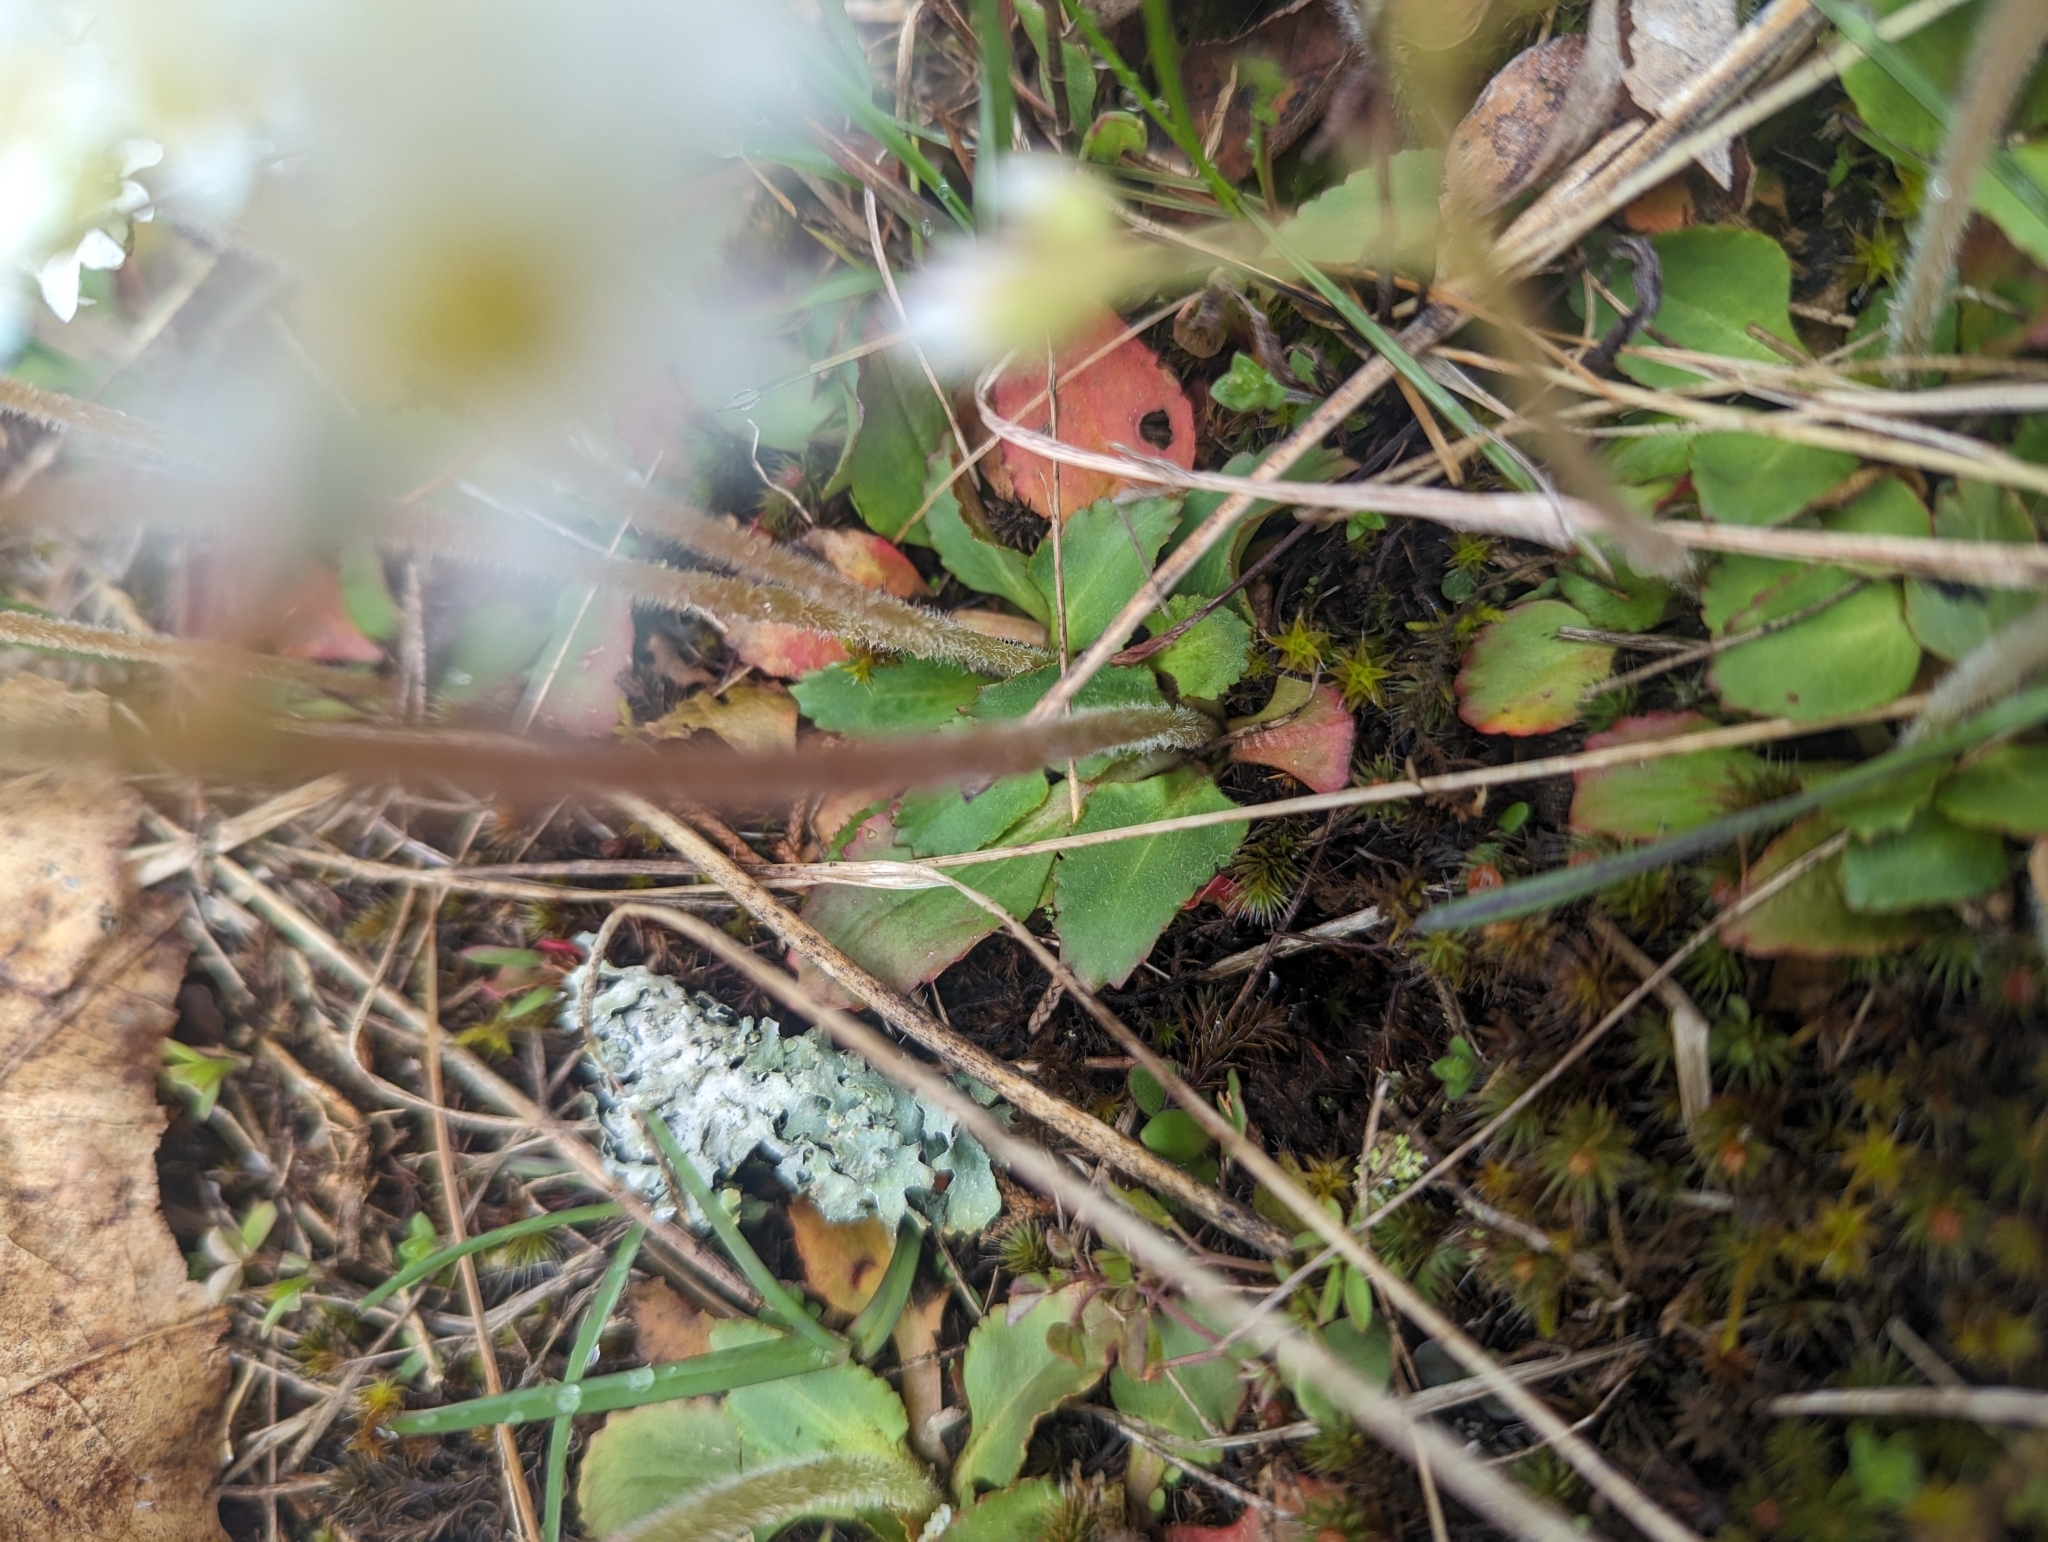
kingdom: Plantae
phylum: Tracheophyta
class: Magnoliopsida
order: Saxifragales
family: Saxifragaceae
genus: Micranthes
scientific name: Micranthes virginiensis
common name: Early saxifrage
